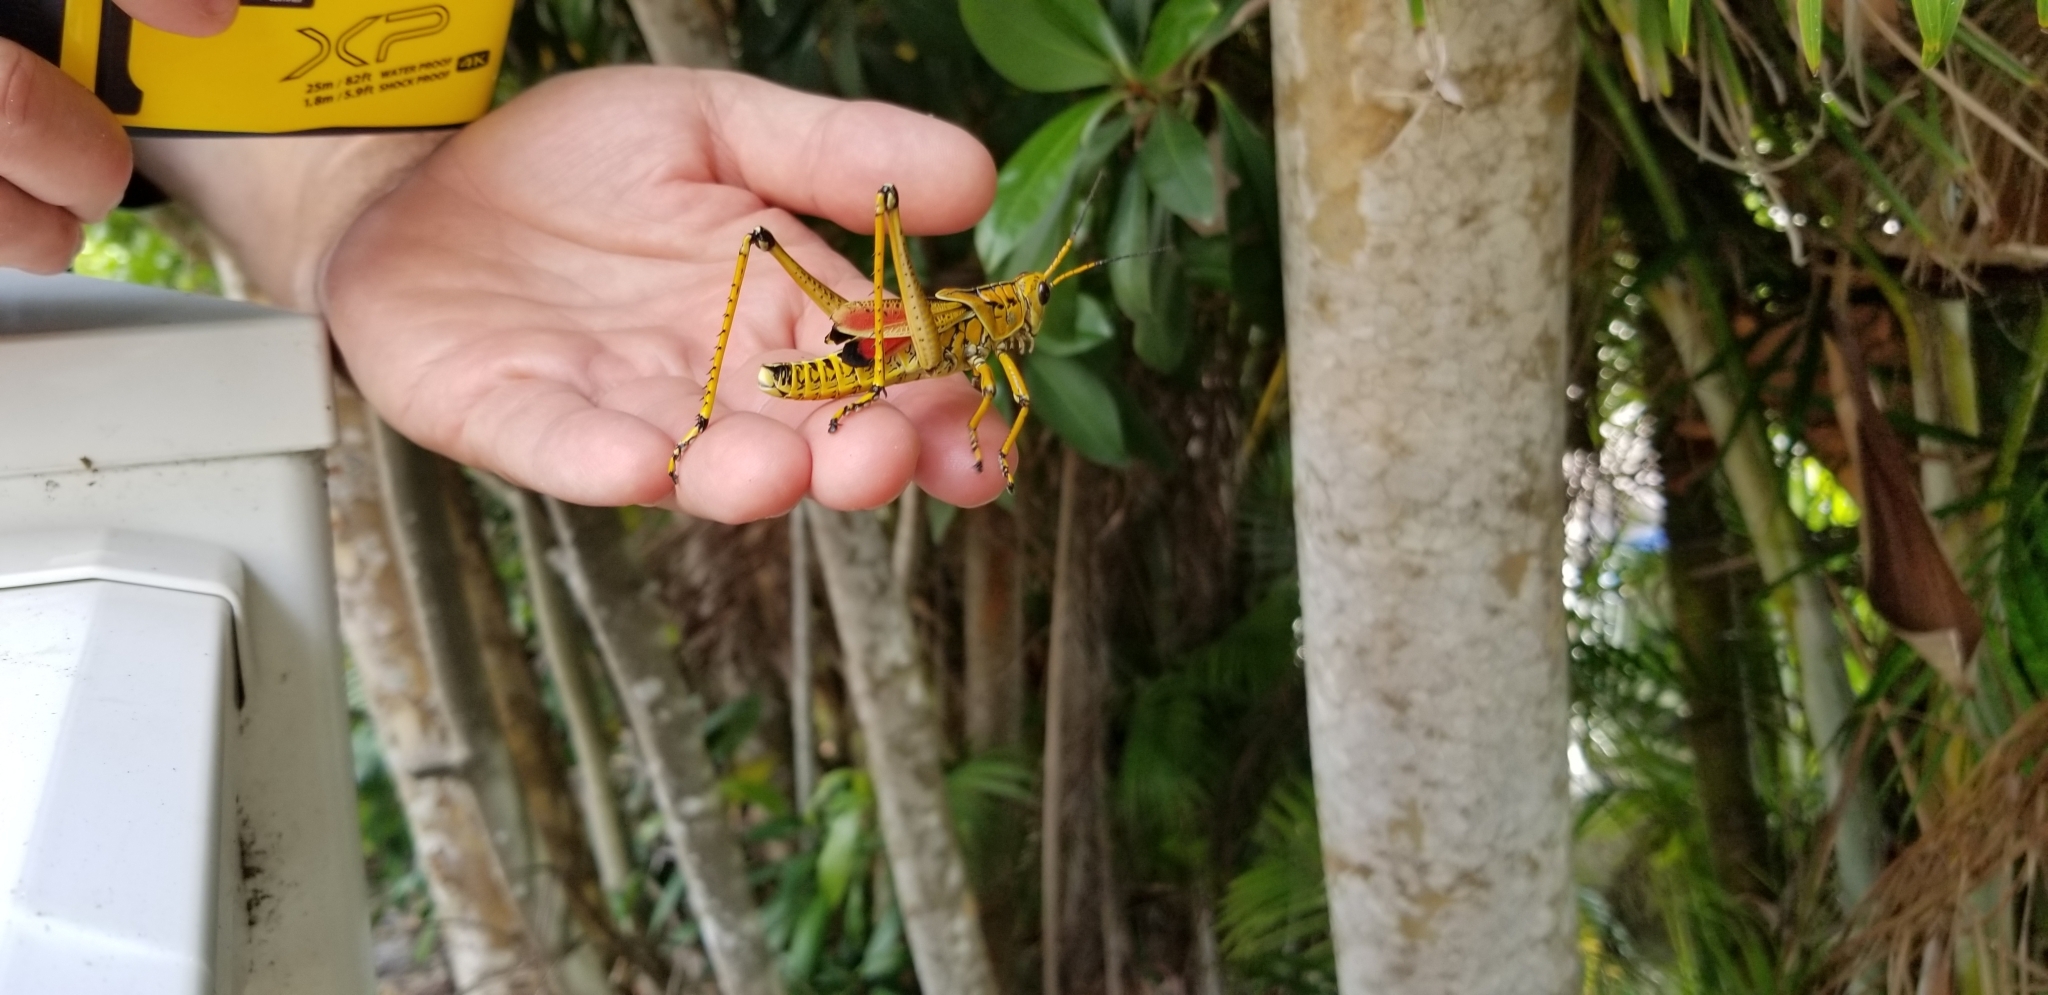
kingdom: Animalia
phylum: Arthropoda
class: Insecta
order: Orthoptera
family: Romaleidae
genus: Romalea
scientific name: Romalea microptera
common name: Eastern lubber grasshopper
